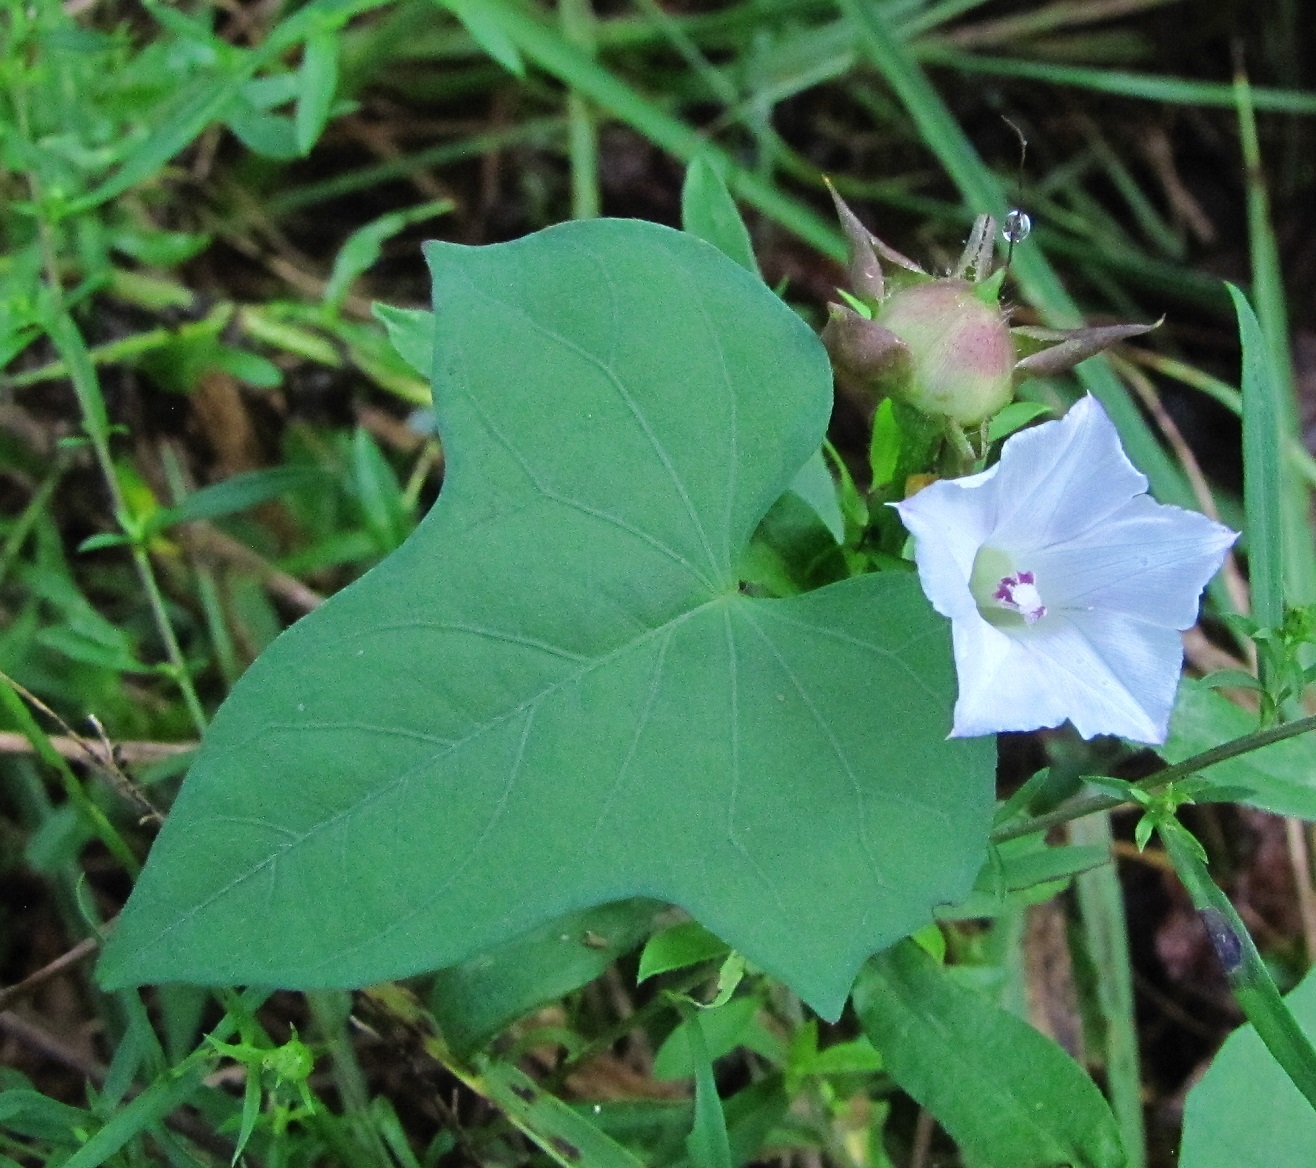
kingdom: Plantae
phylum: Tracheophyta
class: Magnoliopsida
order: Solanales
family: Convolvulaceae
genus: Ipomoea
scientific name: Ipomoea lacunosa
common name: White morning-glory
